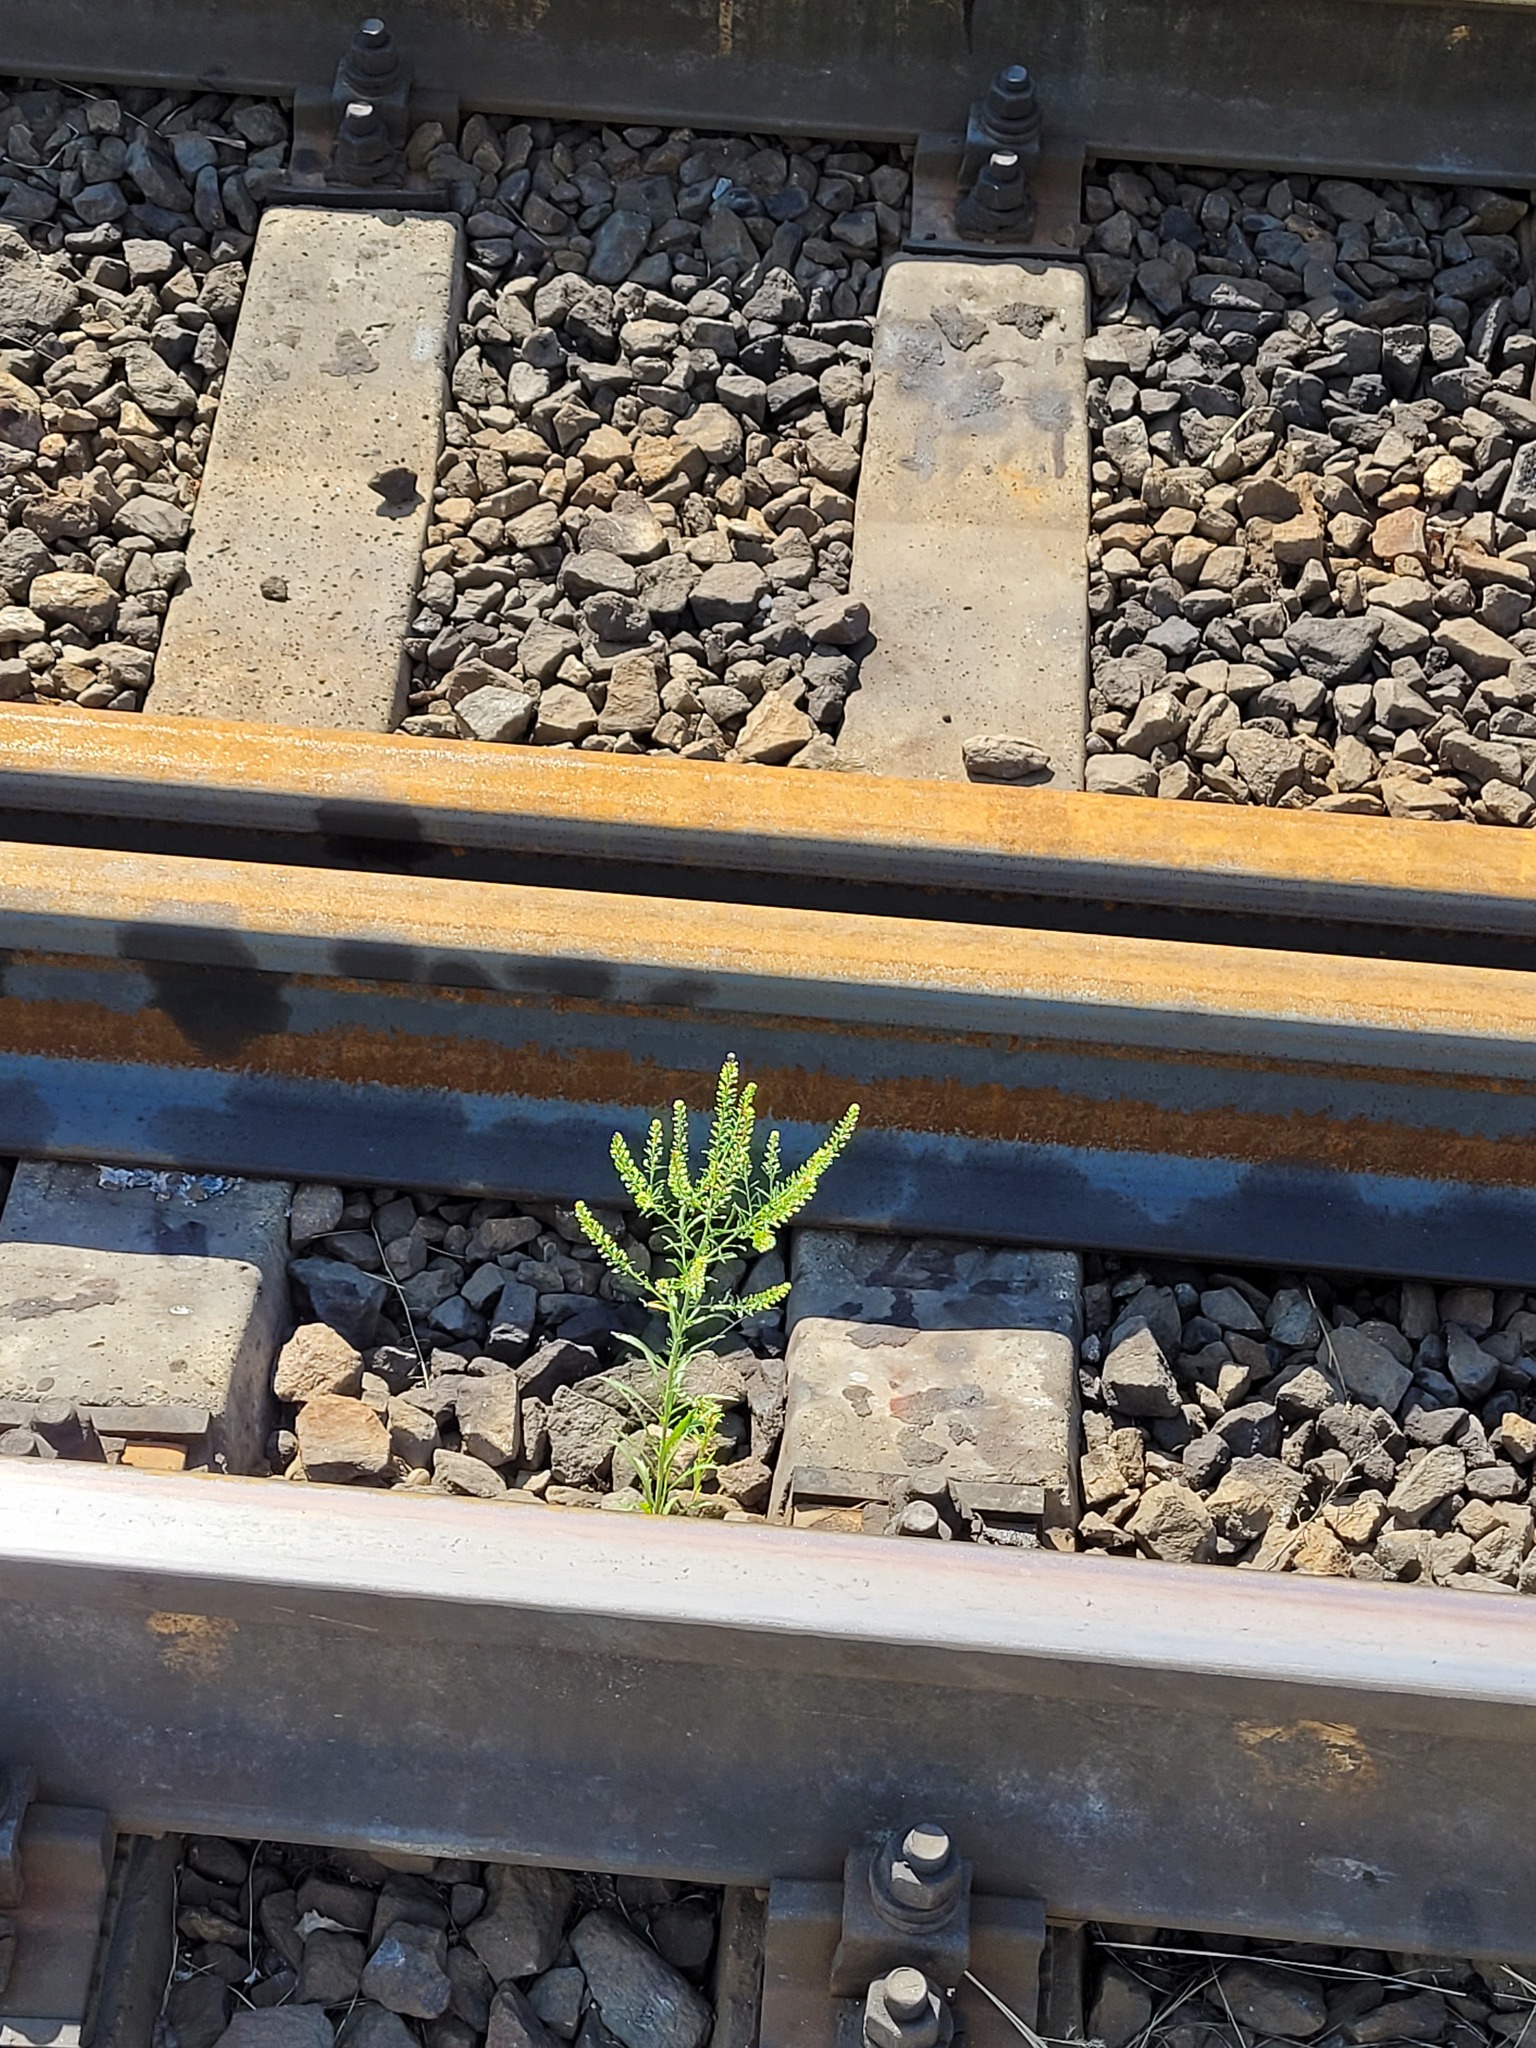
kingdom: Plantae
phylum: Tracheophyta
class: Magnoliopsida
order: Brassicales
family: Brassicaceae
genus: Lepidium
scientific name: Lepidium densiflorum
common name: Miner's pepperwort
